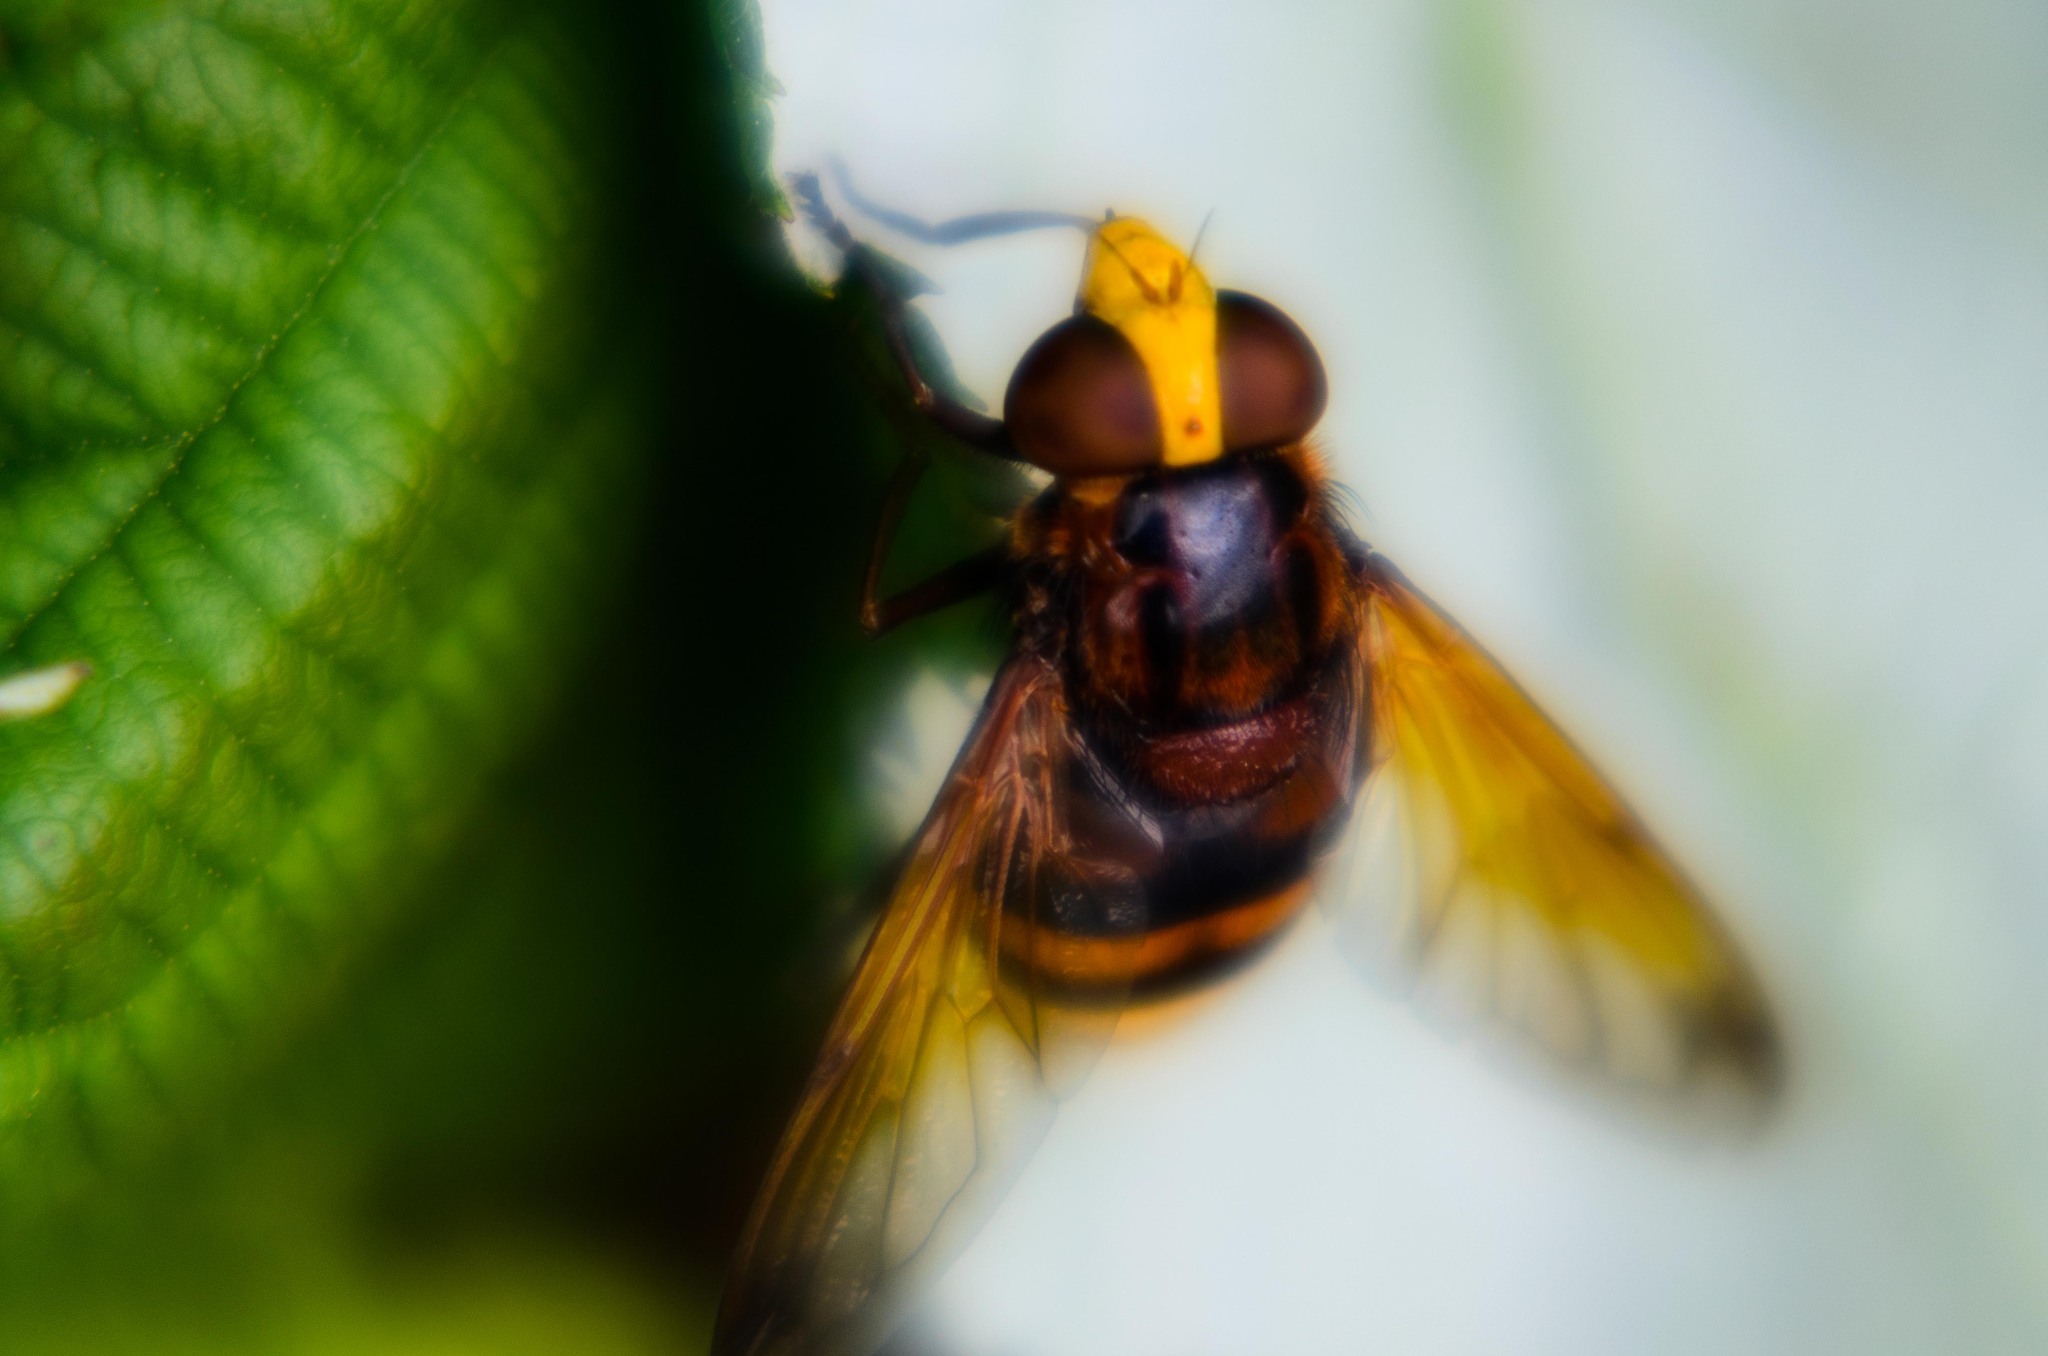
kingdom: Animalia
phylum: Arthropoda
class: Insecta
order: Diptera
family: Syrphidae
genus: Volucella
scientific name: Volucella zonaria
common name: Hornet hoverfly
